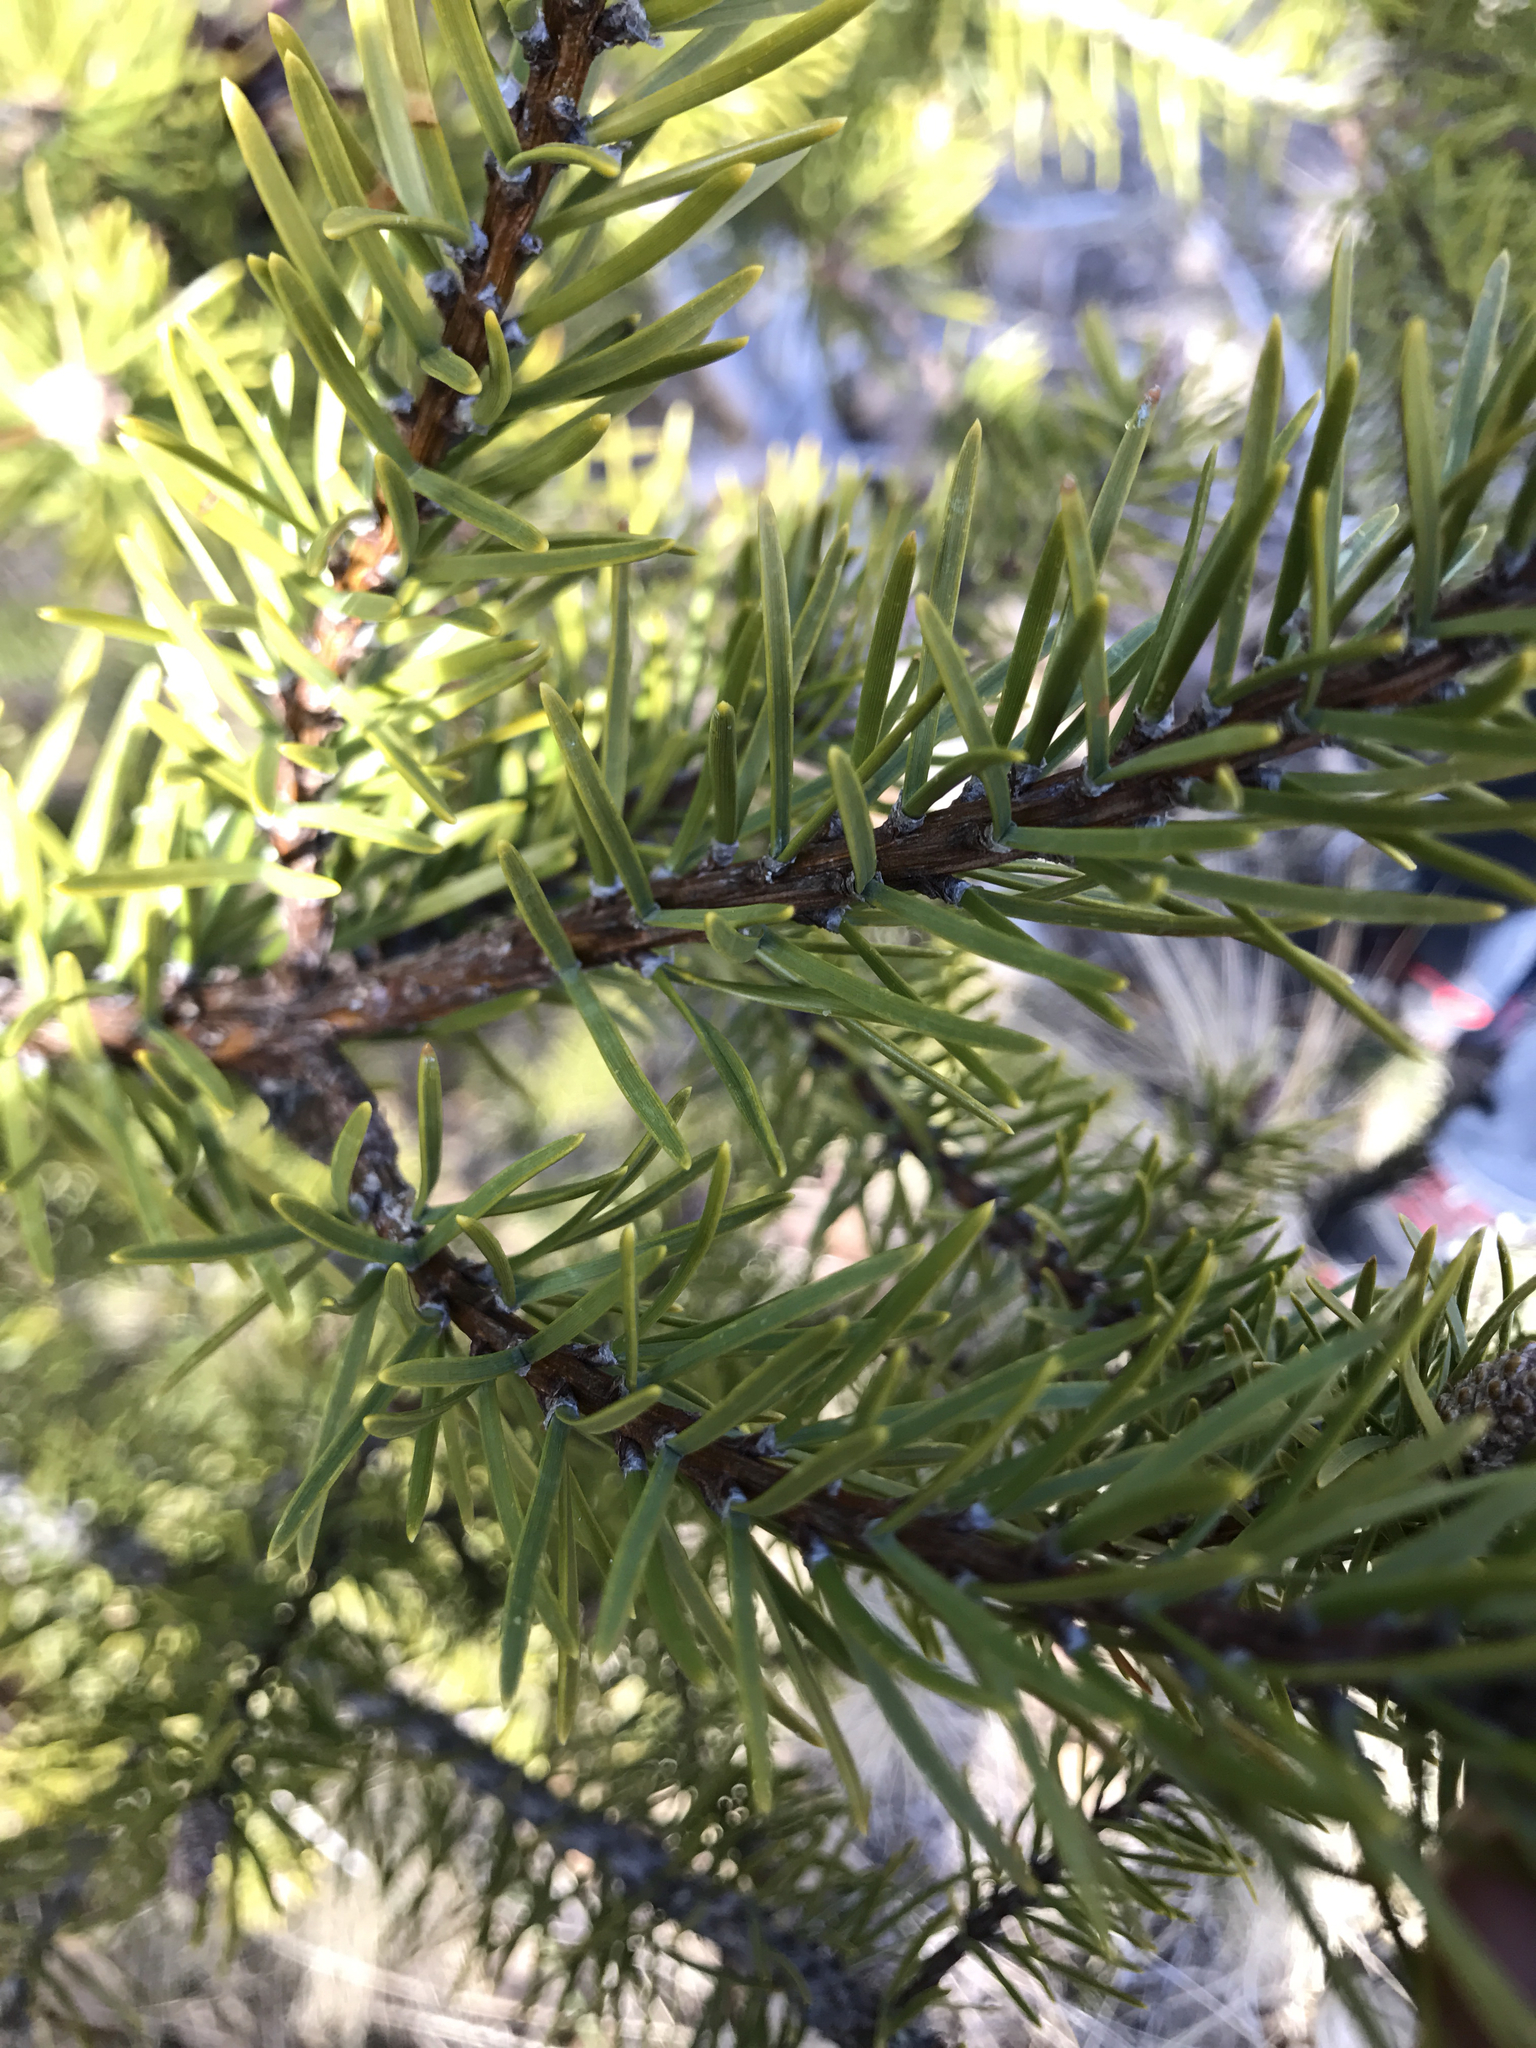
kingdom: Plantae
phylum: Tracheophyta
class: Pinopsida
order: Pinales
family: Pinaceae
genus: Pinus
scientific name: Pinus banksiana
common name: Jack pine
